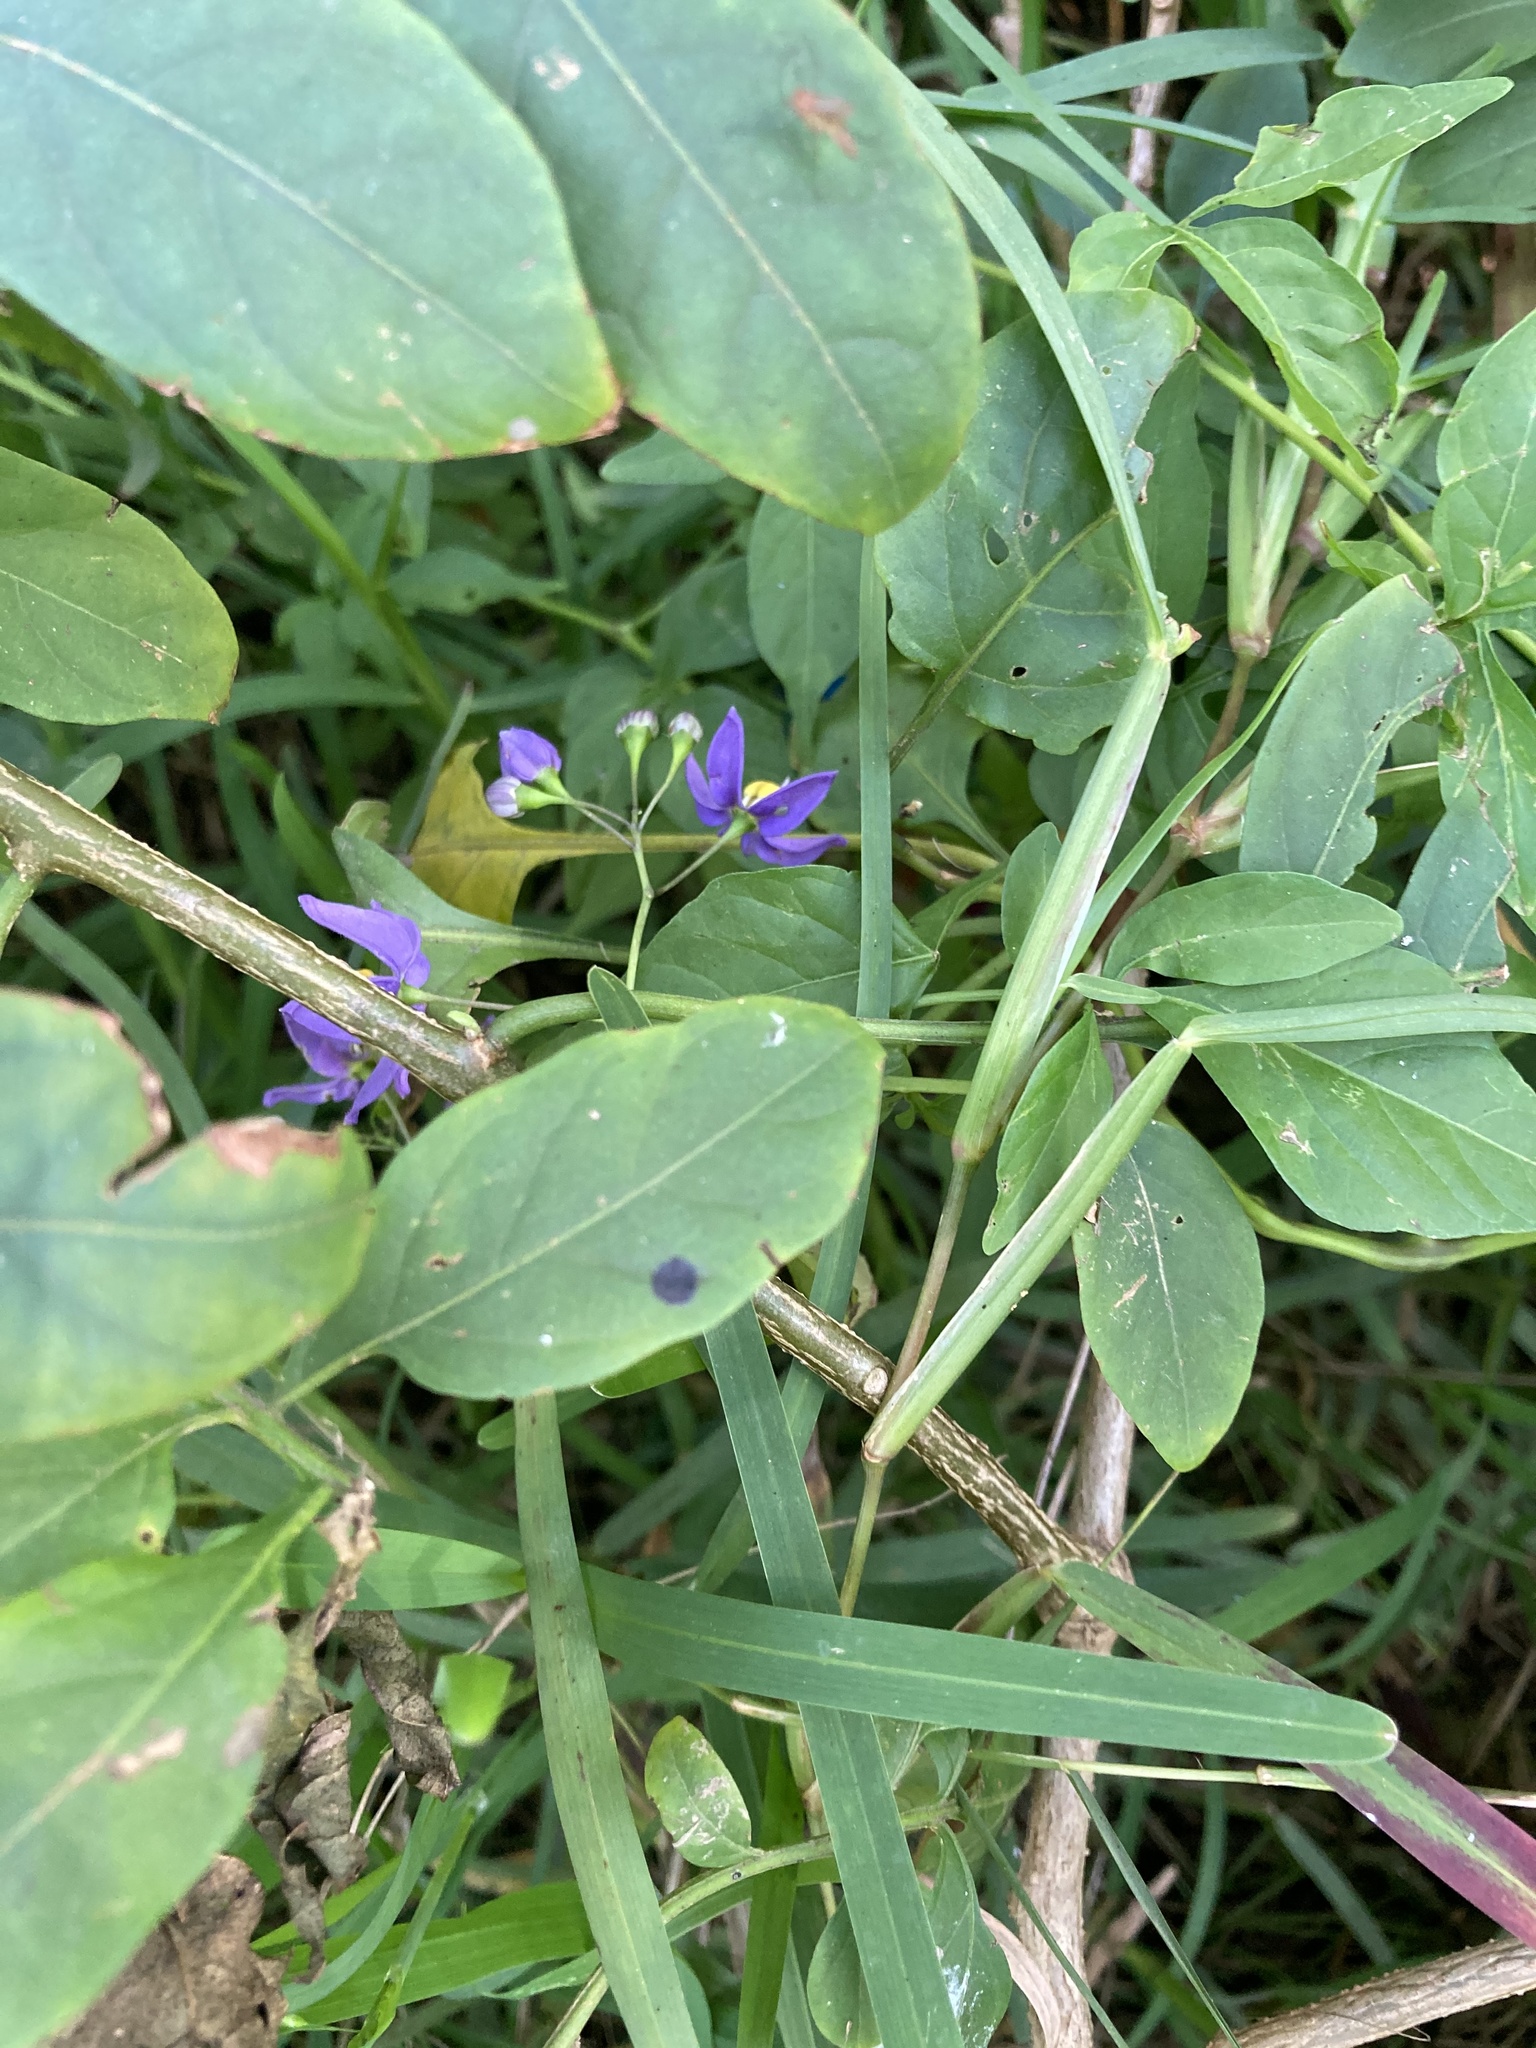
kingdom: Plantae
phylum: Tracheophyta
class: Magnoliopsida
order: Solanales
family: Solanaceae
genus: Solanum
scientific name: Solanum seaforthianum
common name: Brazilian nightshade
